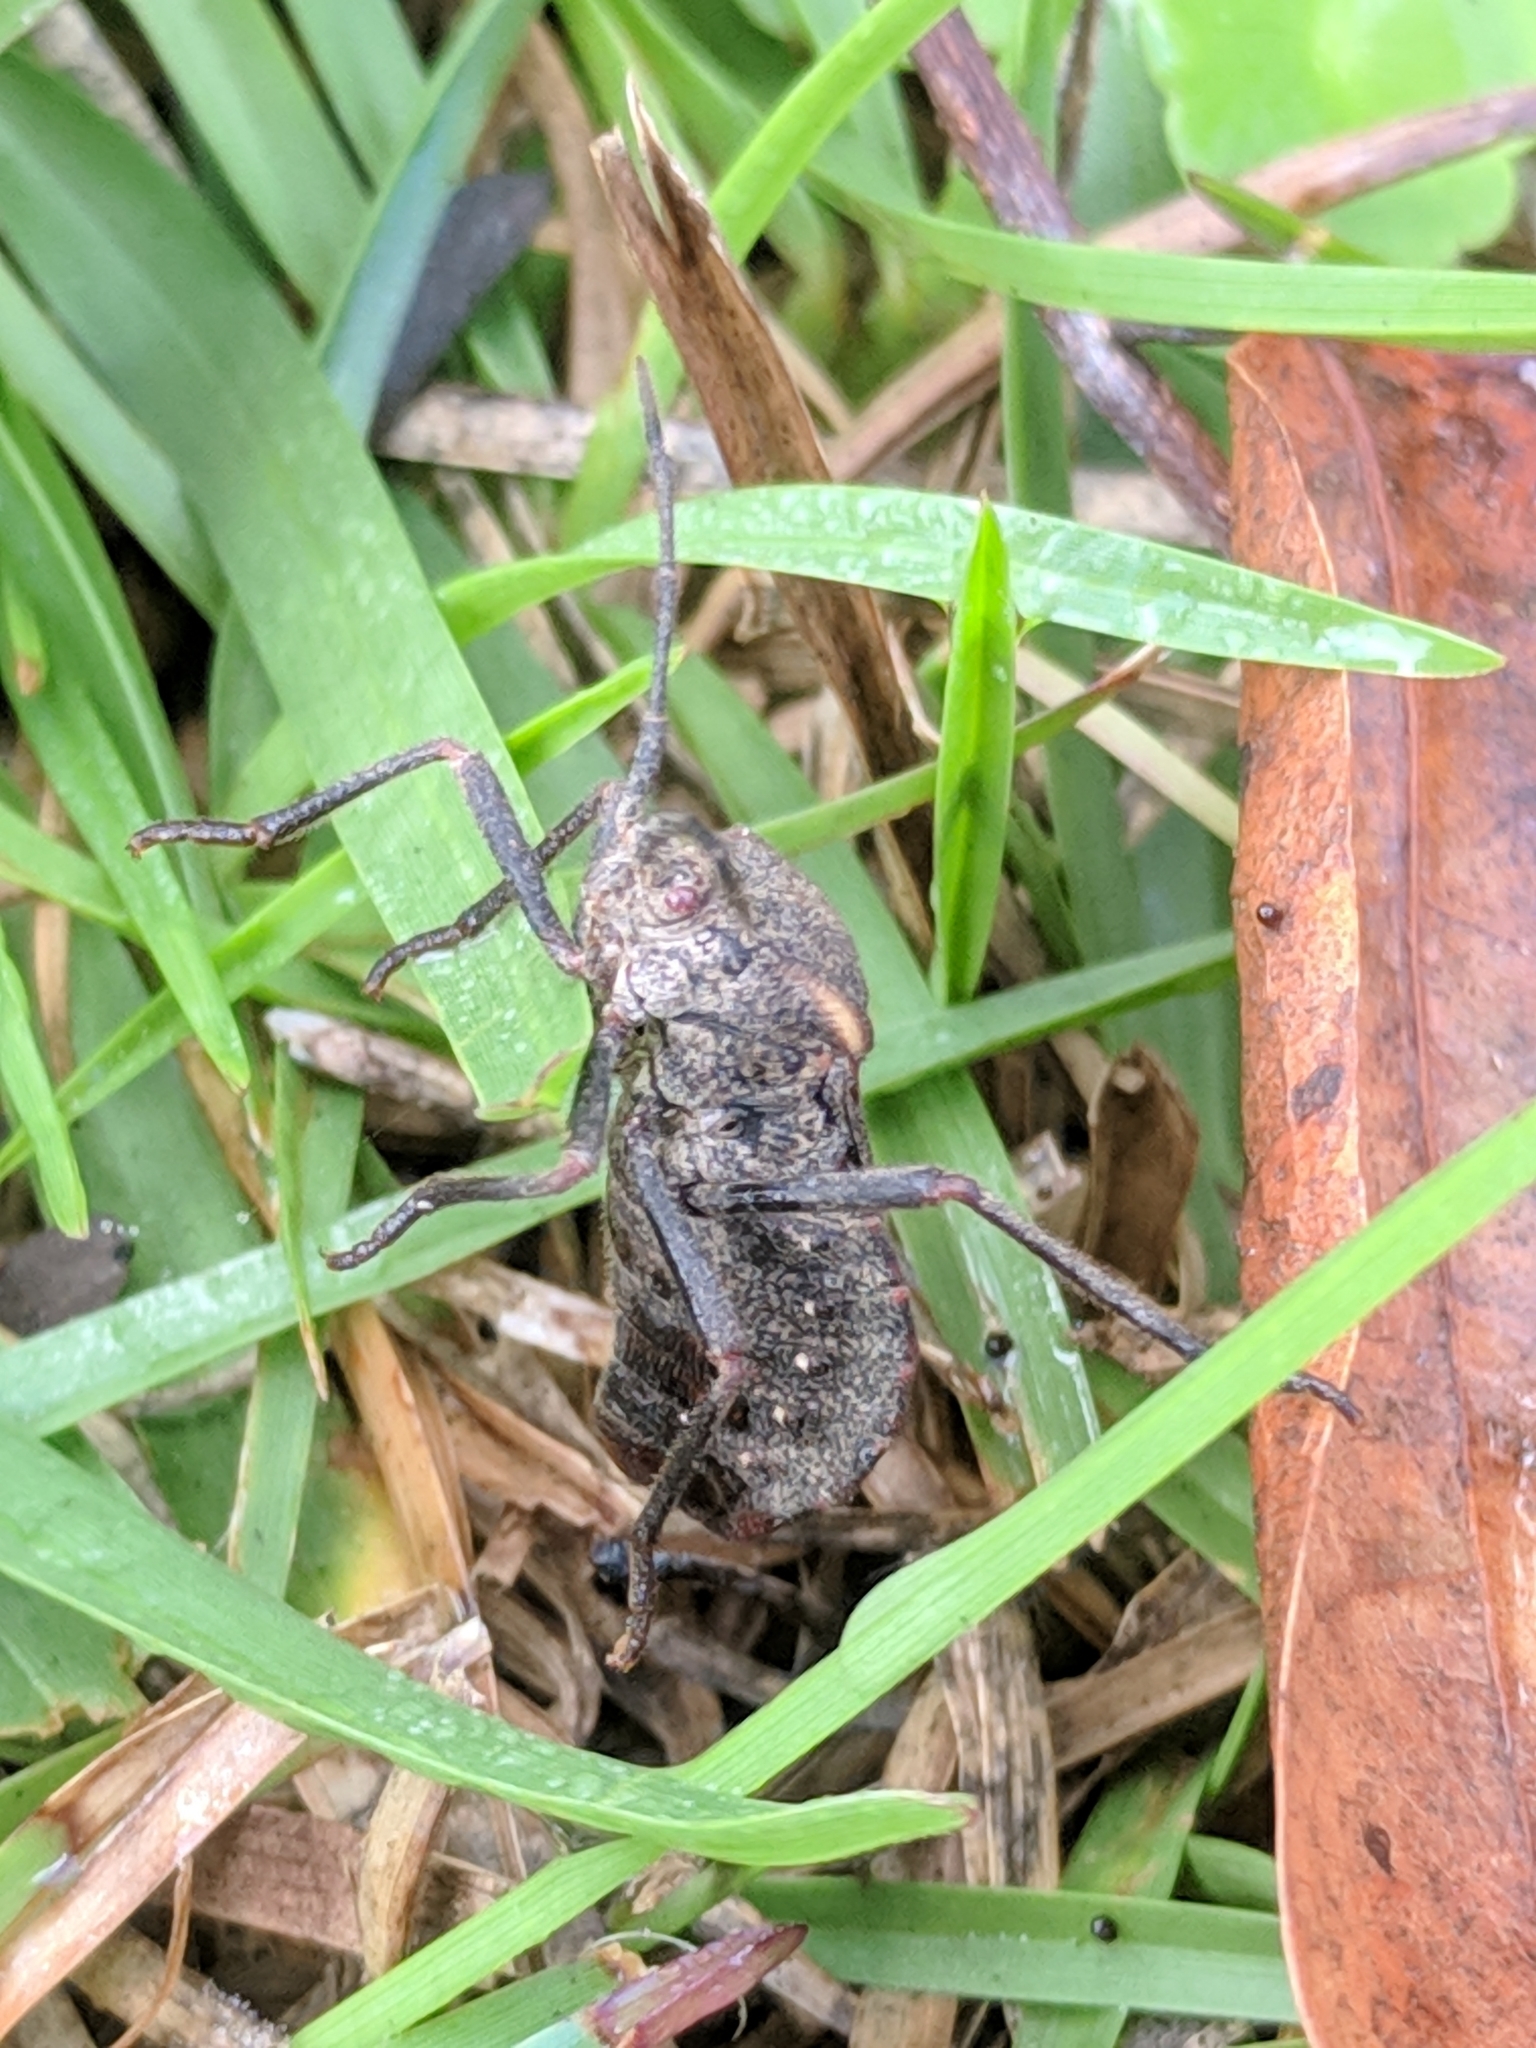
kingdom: Animalia
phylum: Arthropoda
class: Insecta
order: Hemiptera
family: Coreidae
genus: Spartocera
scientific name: Spartocera batatas
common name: Giant sweetpotato bug
